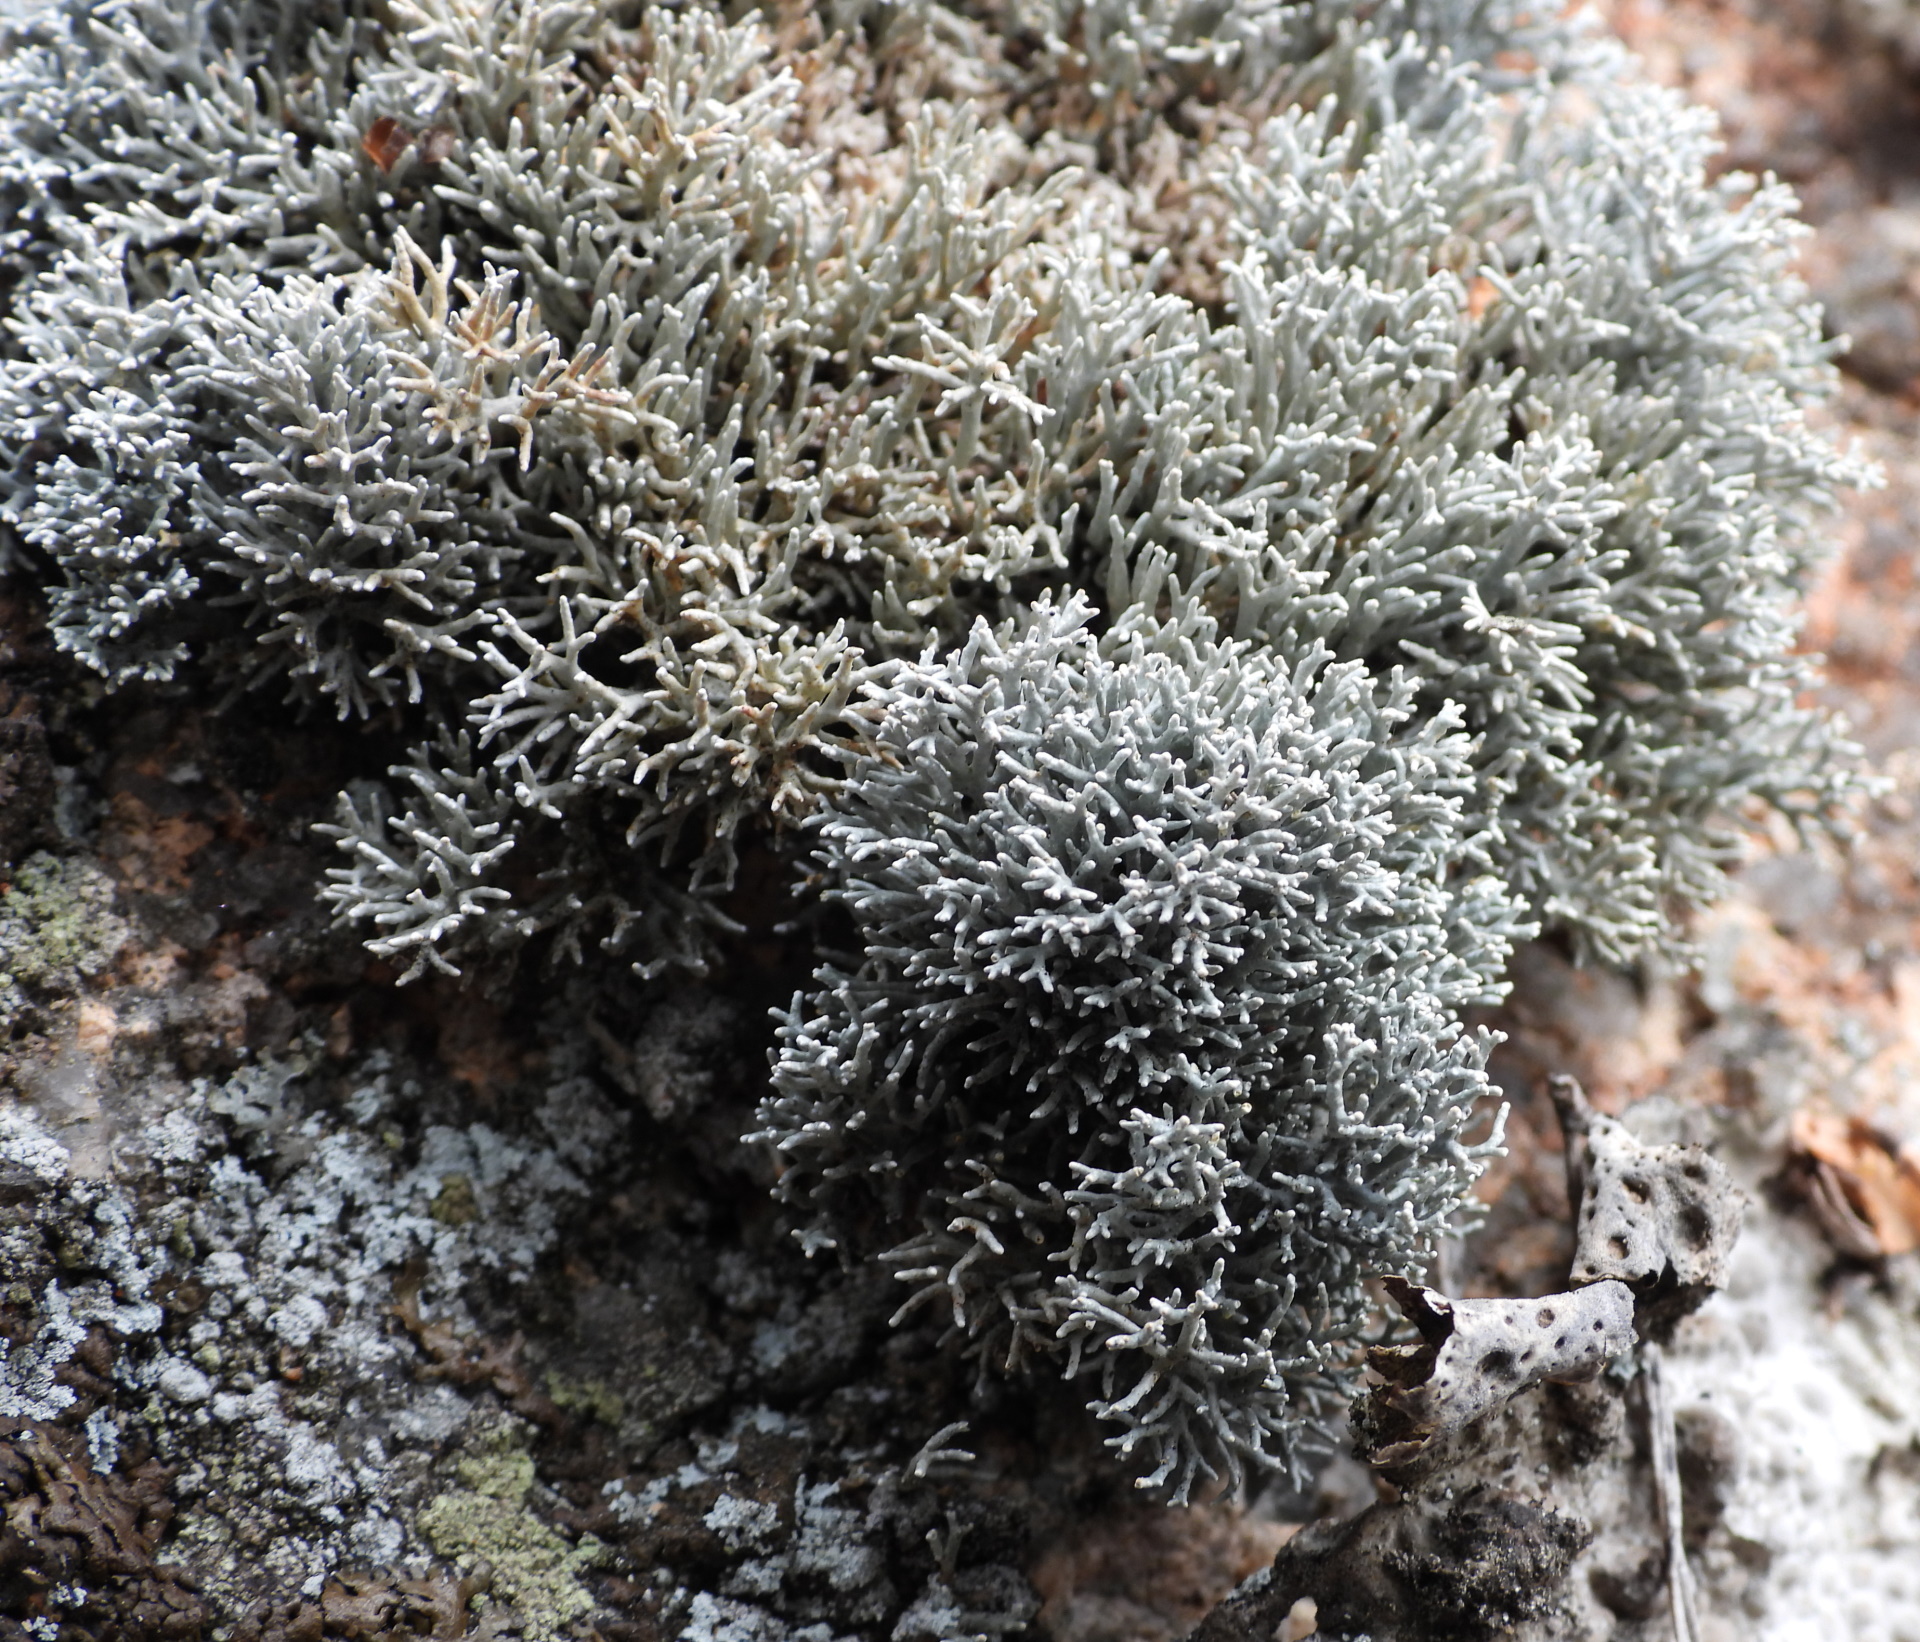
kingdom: Fungi
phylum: Ascomycota
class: Lecanoromycetes
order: Lecanorales
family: Sphaerophoraceae
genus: Sphaerophorus
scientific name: Sphaerophorus fragilis
